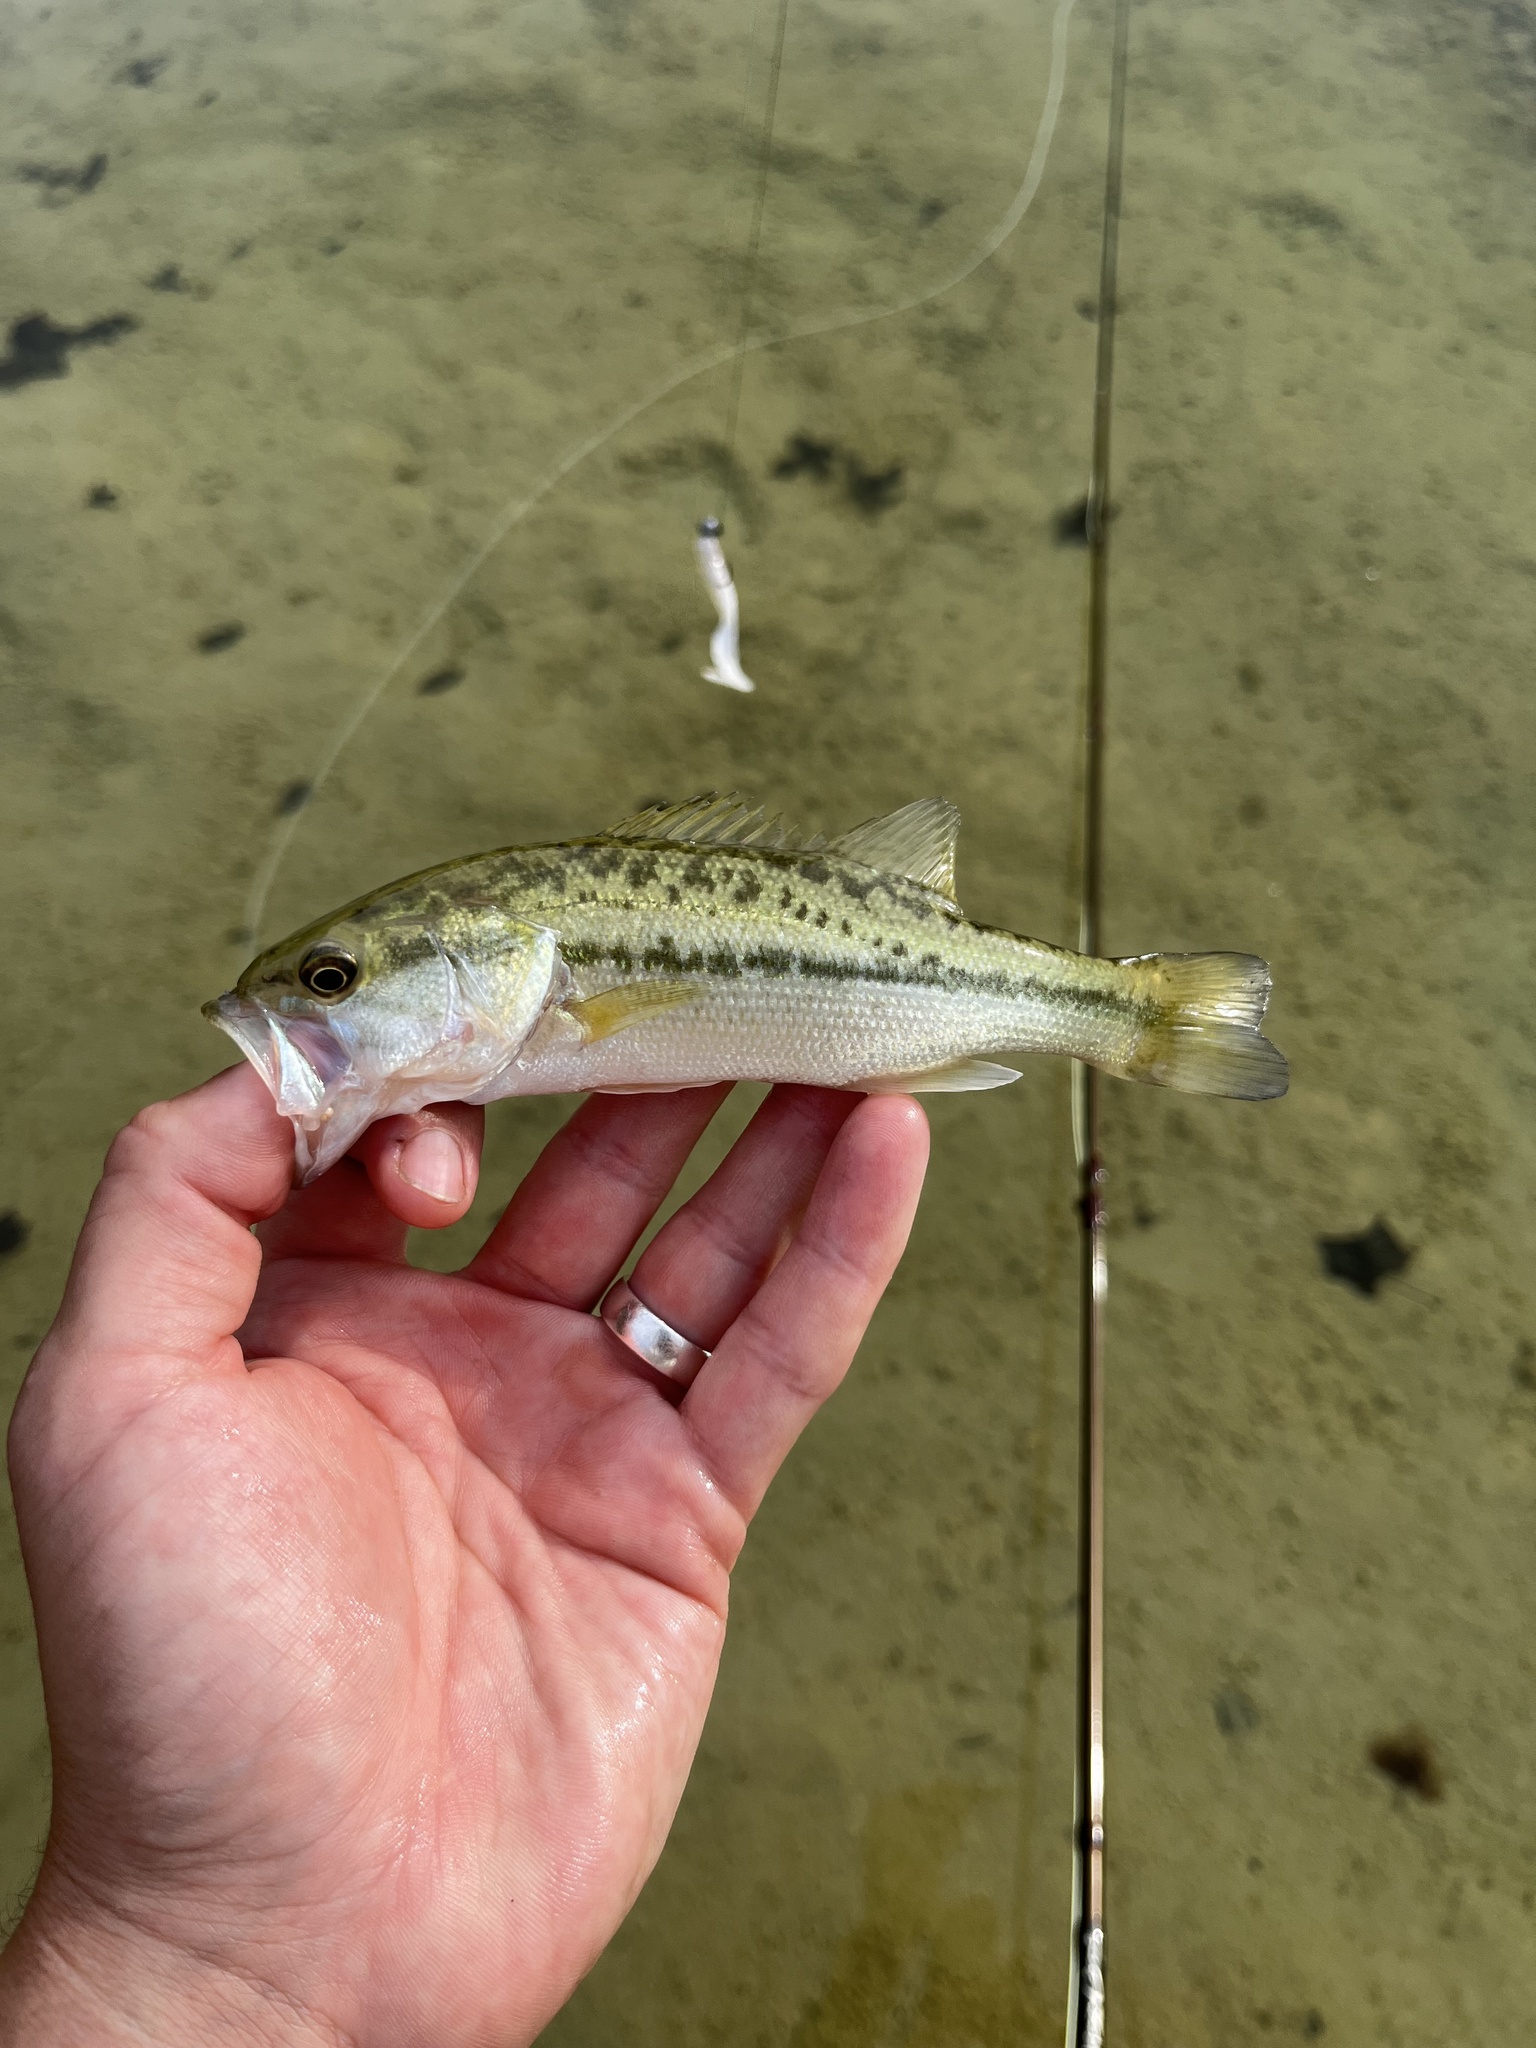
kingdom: Animalia
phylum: Chordata
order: Perciformes
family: Centrarchidae
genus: Micropterus
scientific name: Micropterus
